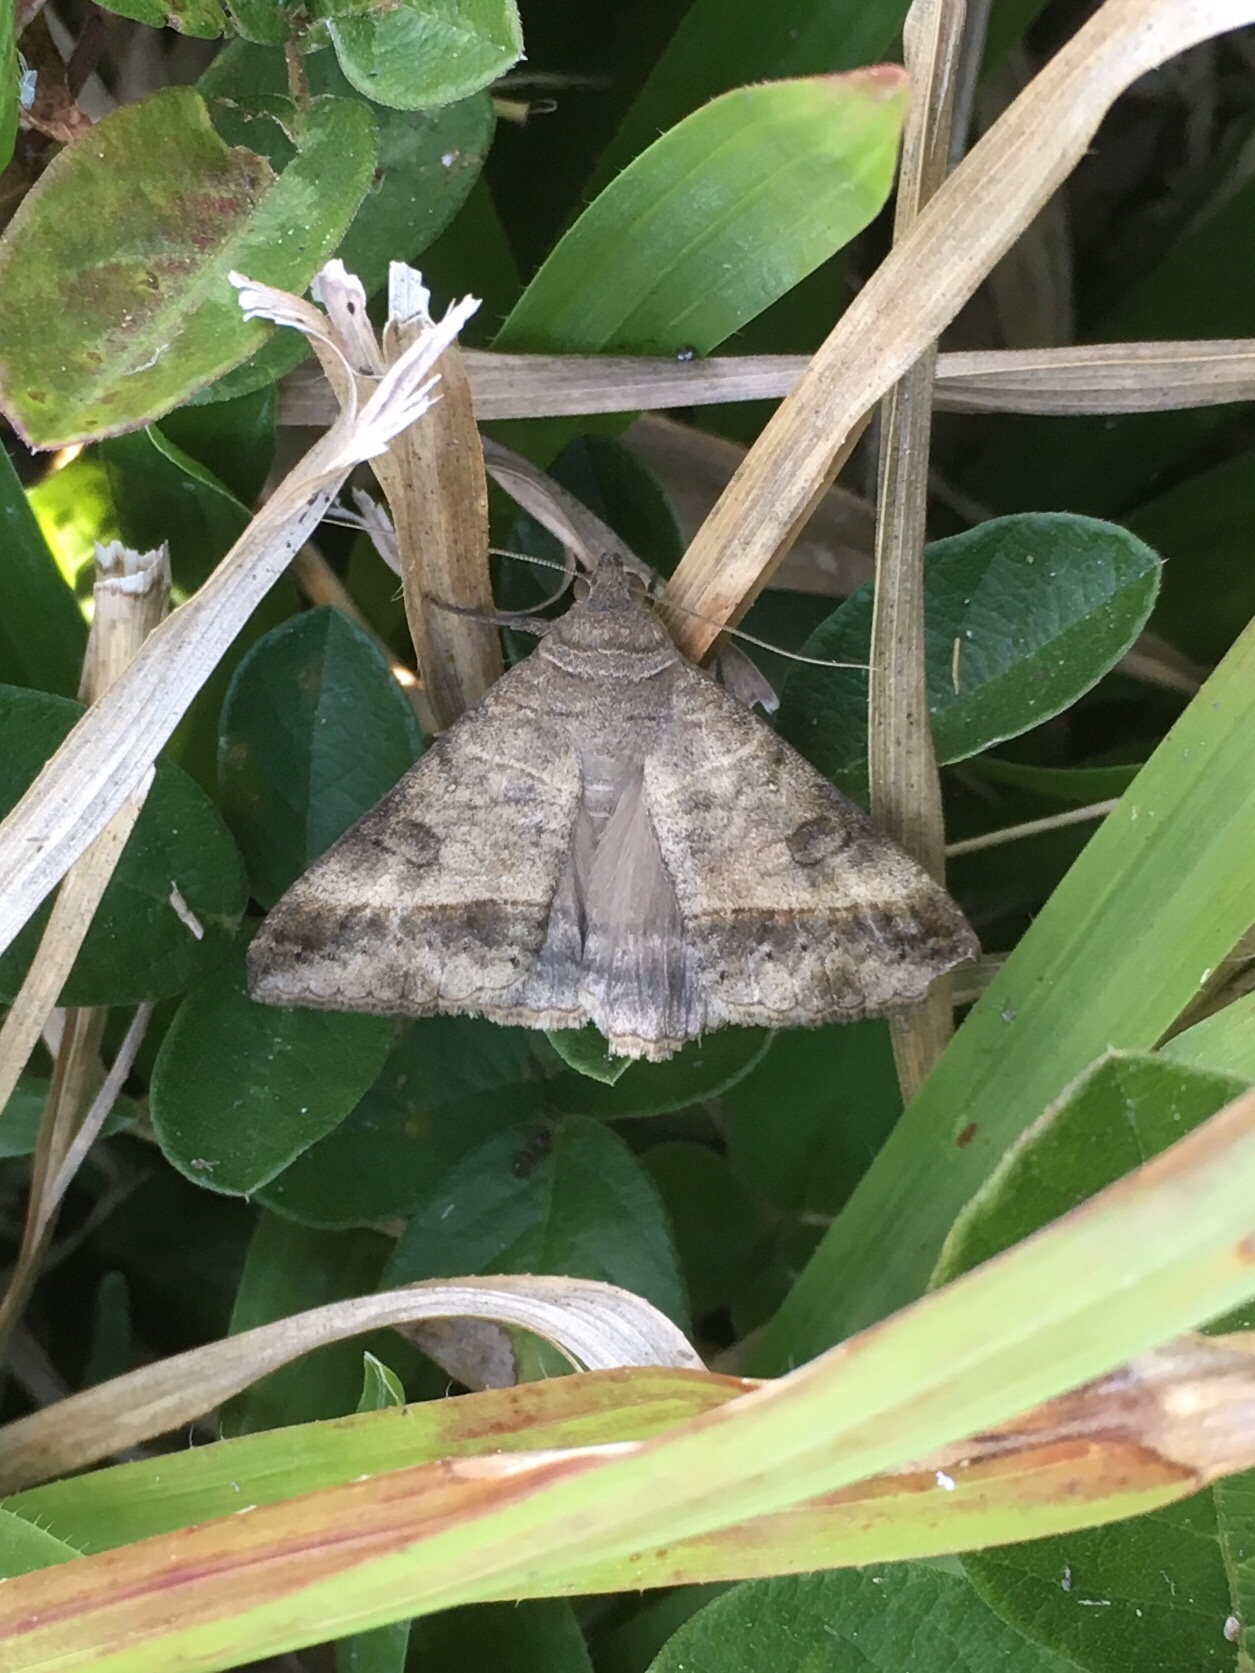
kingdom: Animalia
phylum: Arthropoda
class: Insecta
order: Lepidoptera
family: Erebidae
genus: Mocis
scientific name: Mocis latipes
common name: Striped grass looper
